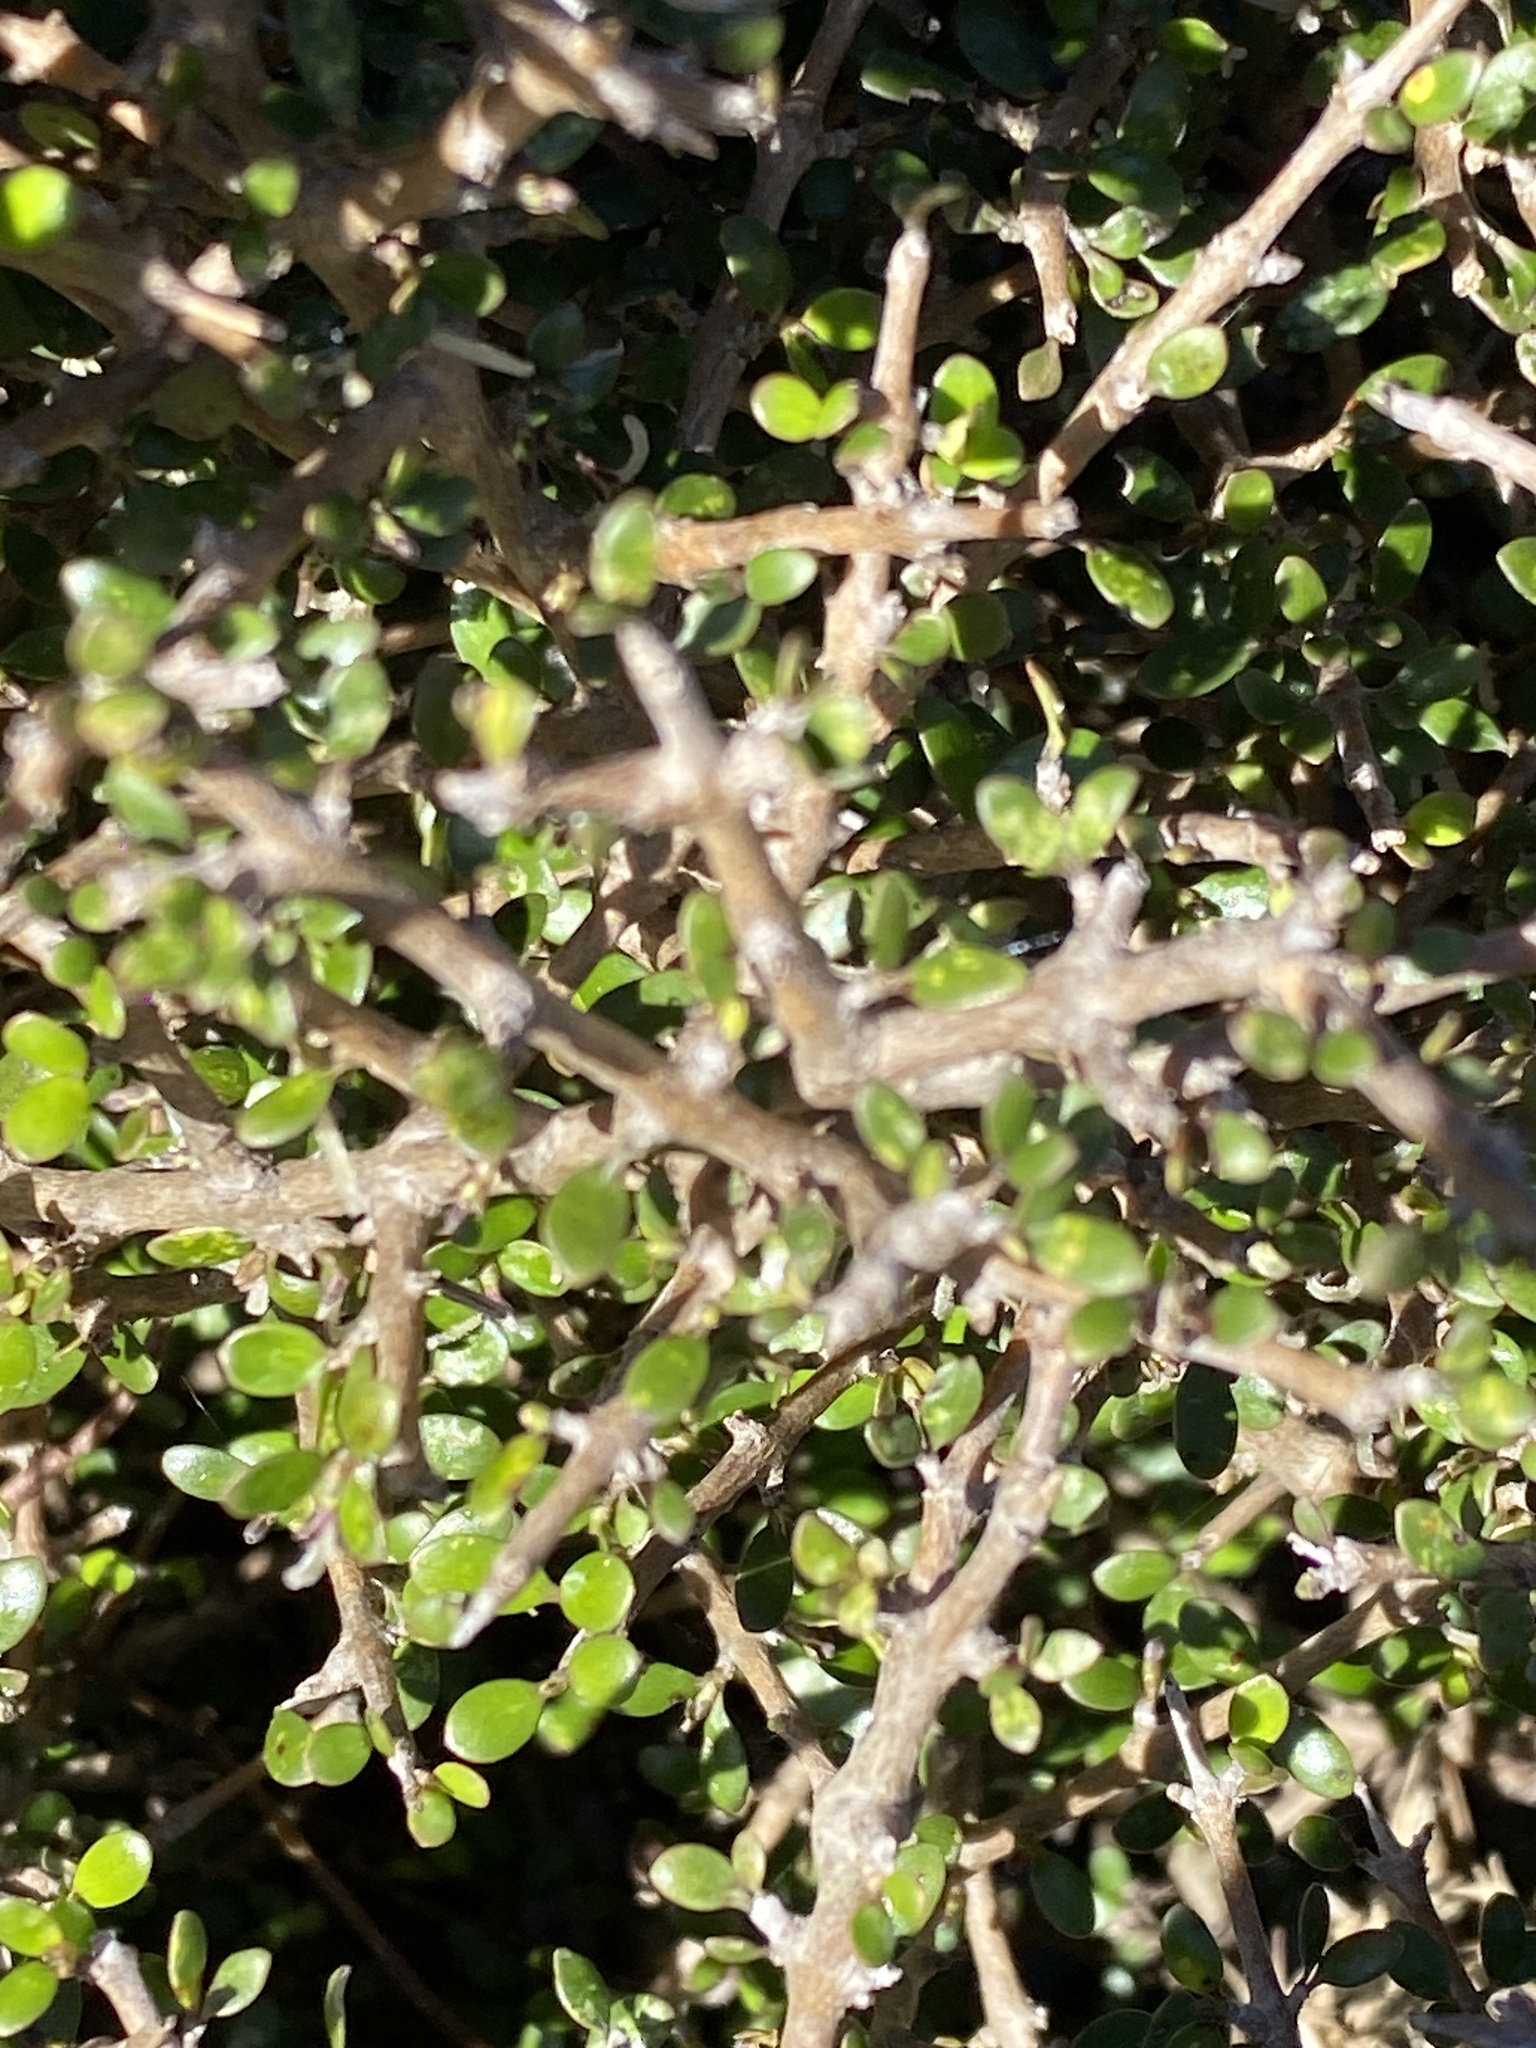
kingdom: Plantae
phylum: Tracheophyta
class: Magnoliopsida
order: Gentianales
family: Rubiaceae
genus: Coprosma
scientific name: Coprosma propinqua
